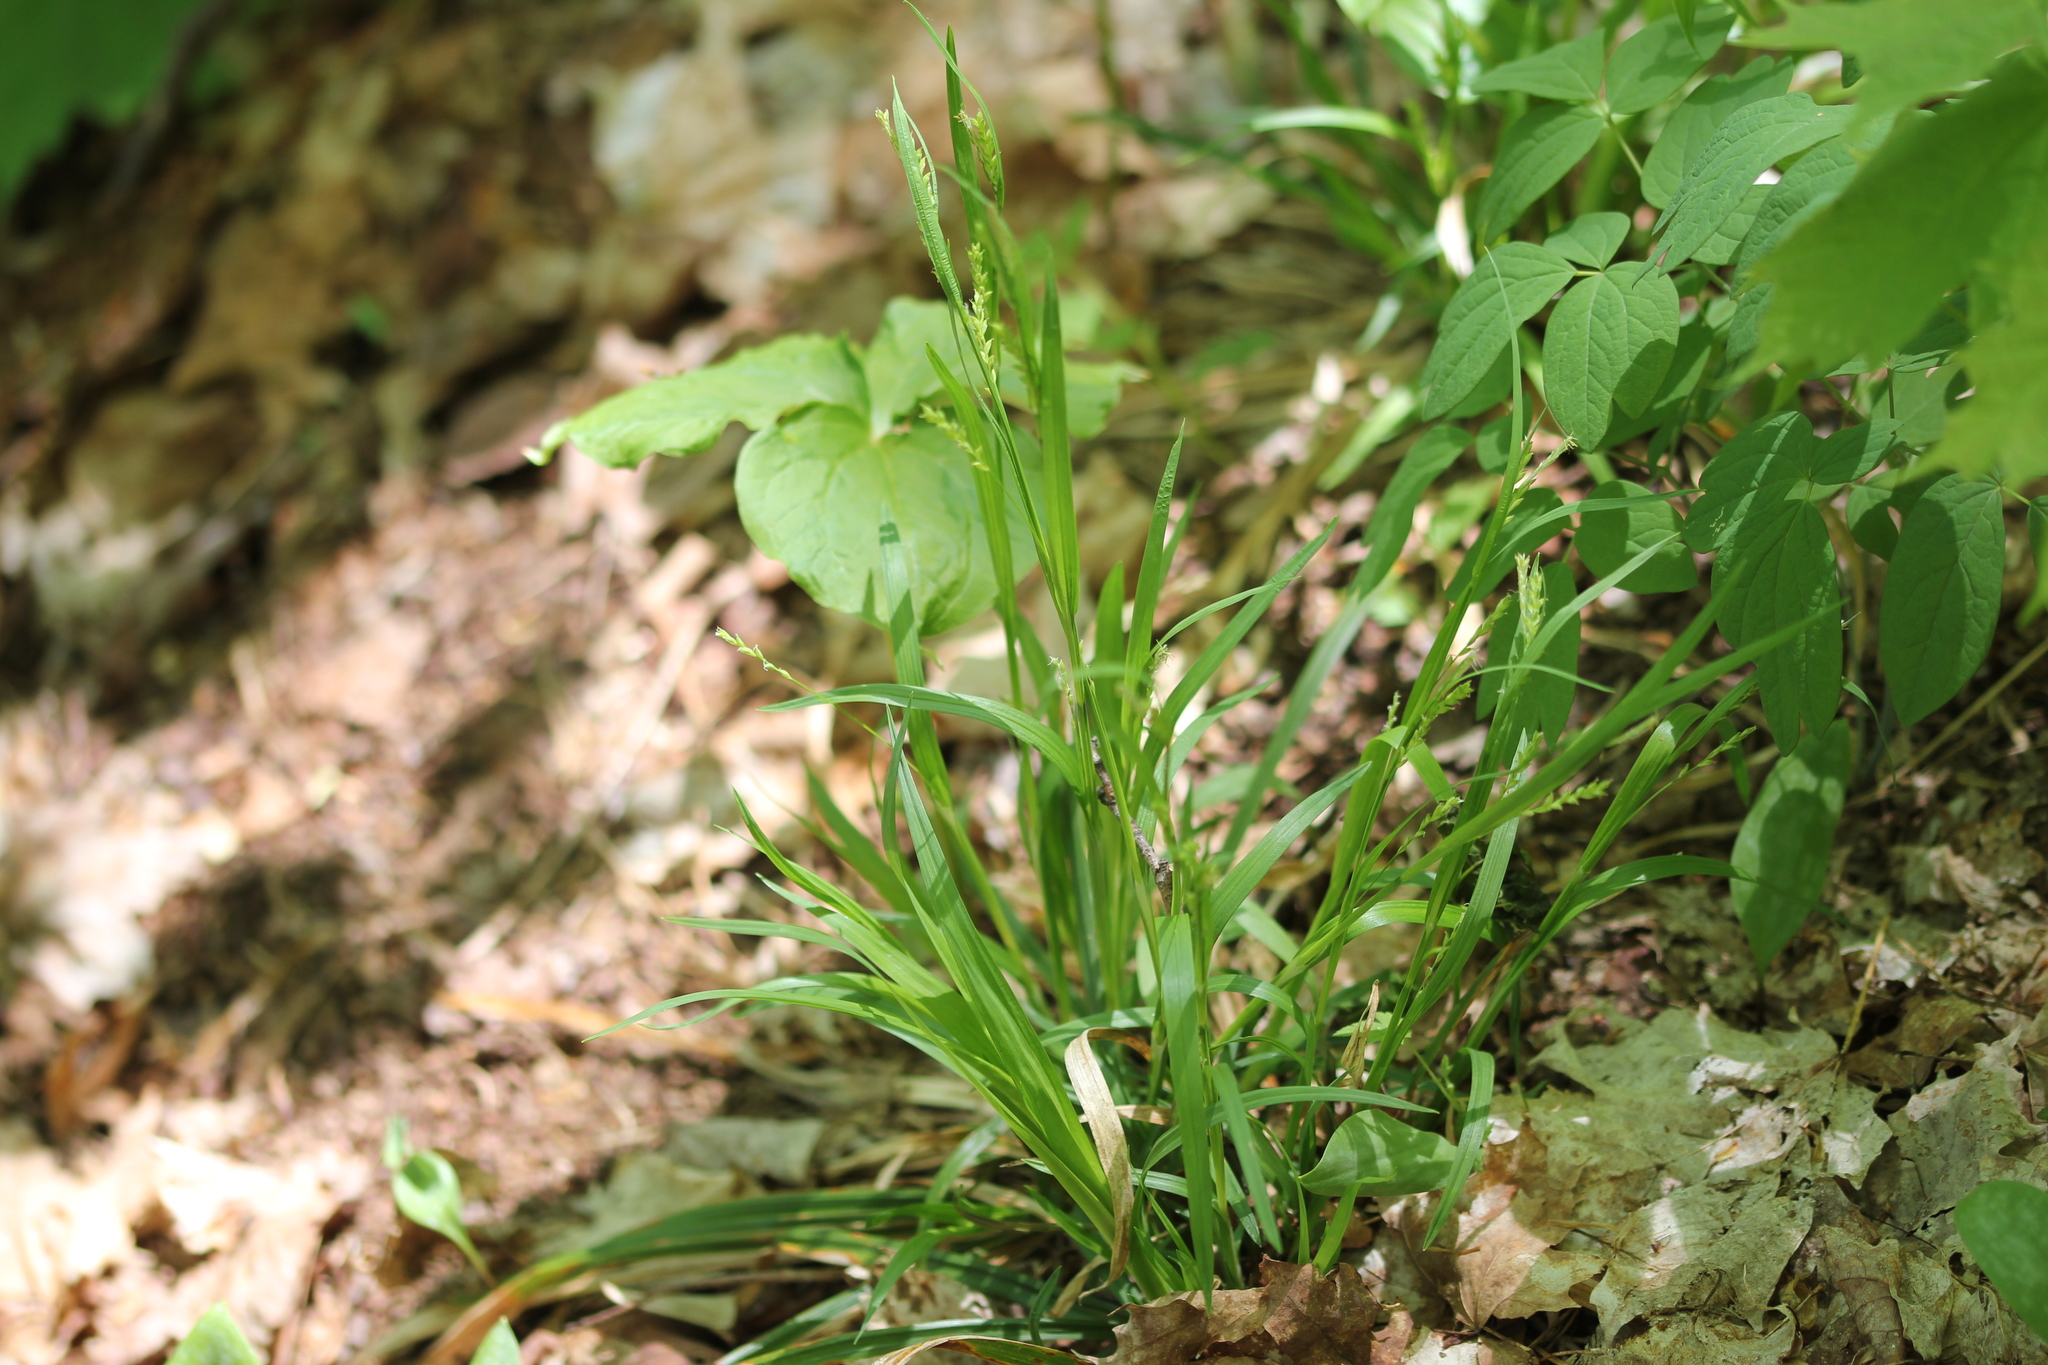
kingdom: Plantae
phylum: Tracheophyta
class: Liliopsida
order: Poales
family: Cyperaceae
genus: Carex
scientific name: Carex leptonervia
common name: Few-nerved wood sedge
